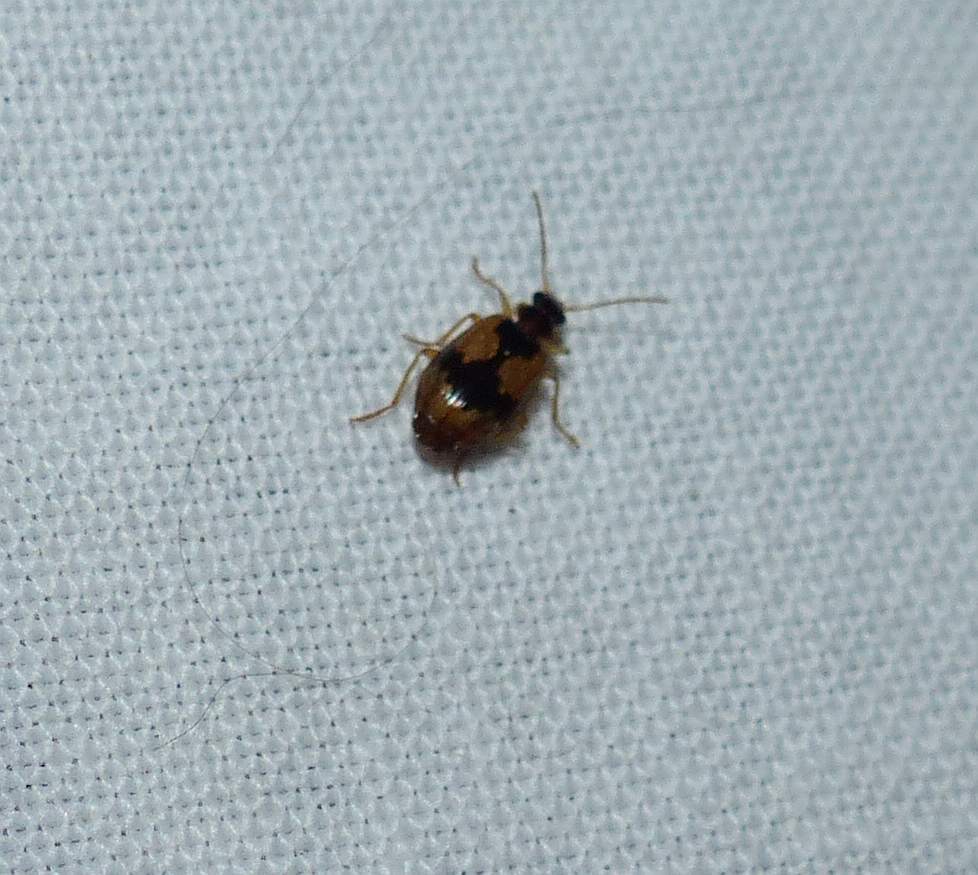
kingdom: Animalia
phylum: Arthropoda
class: Insecta
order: Coleoptera
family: Carabidae
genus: Lebia
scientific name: Lebia fuscata
